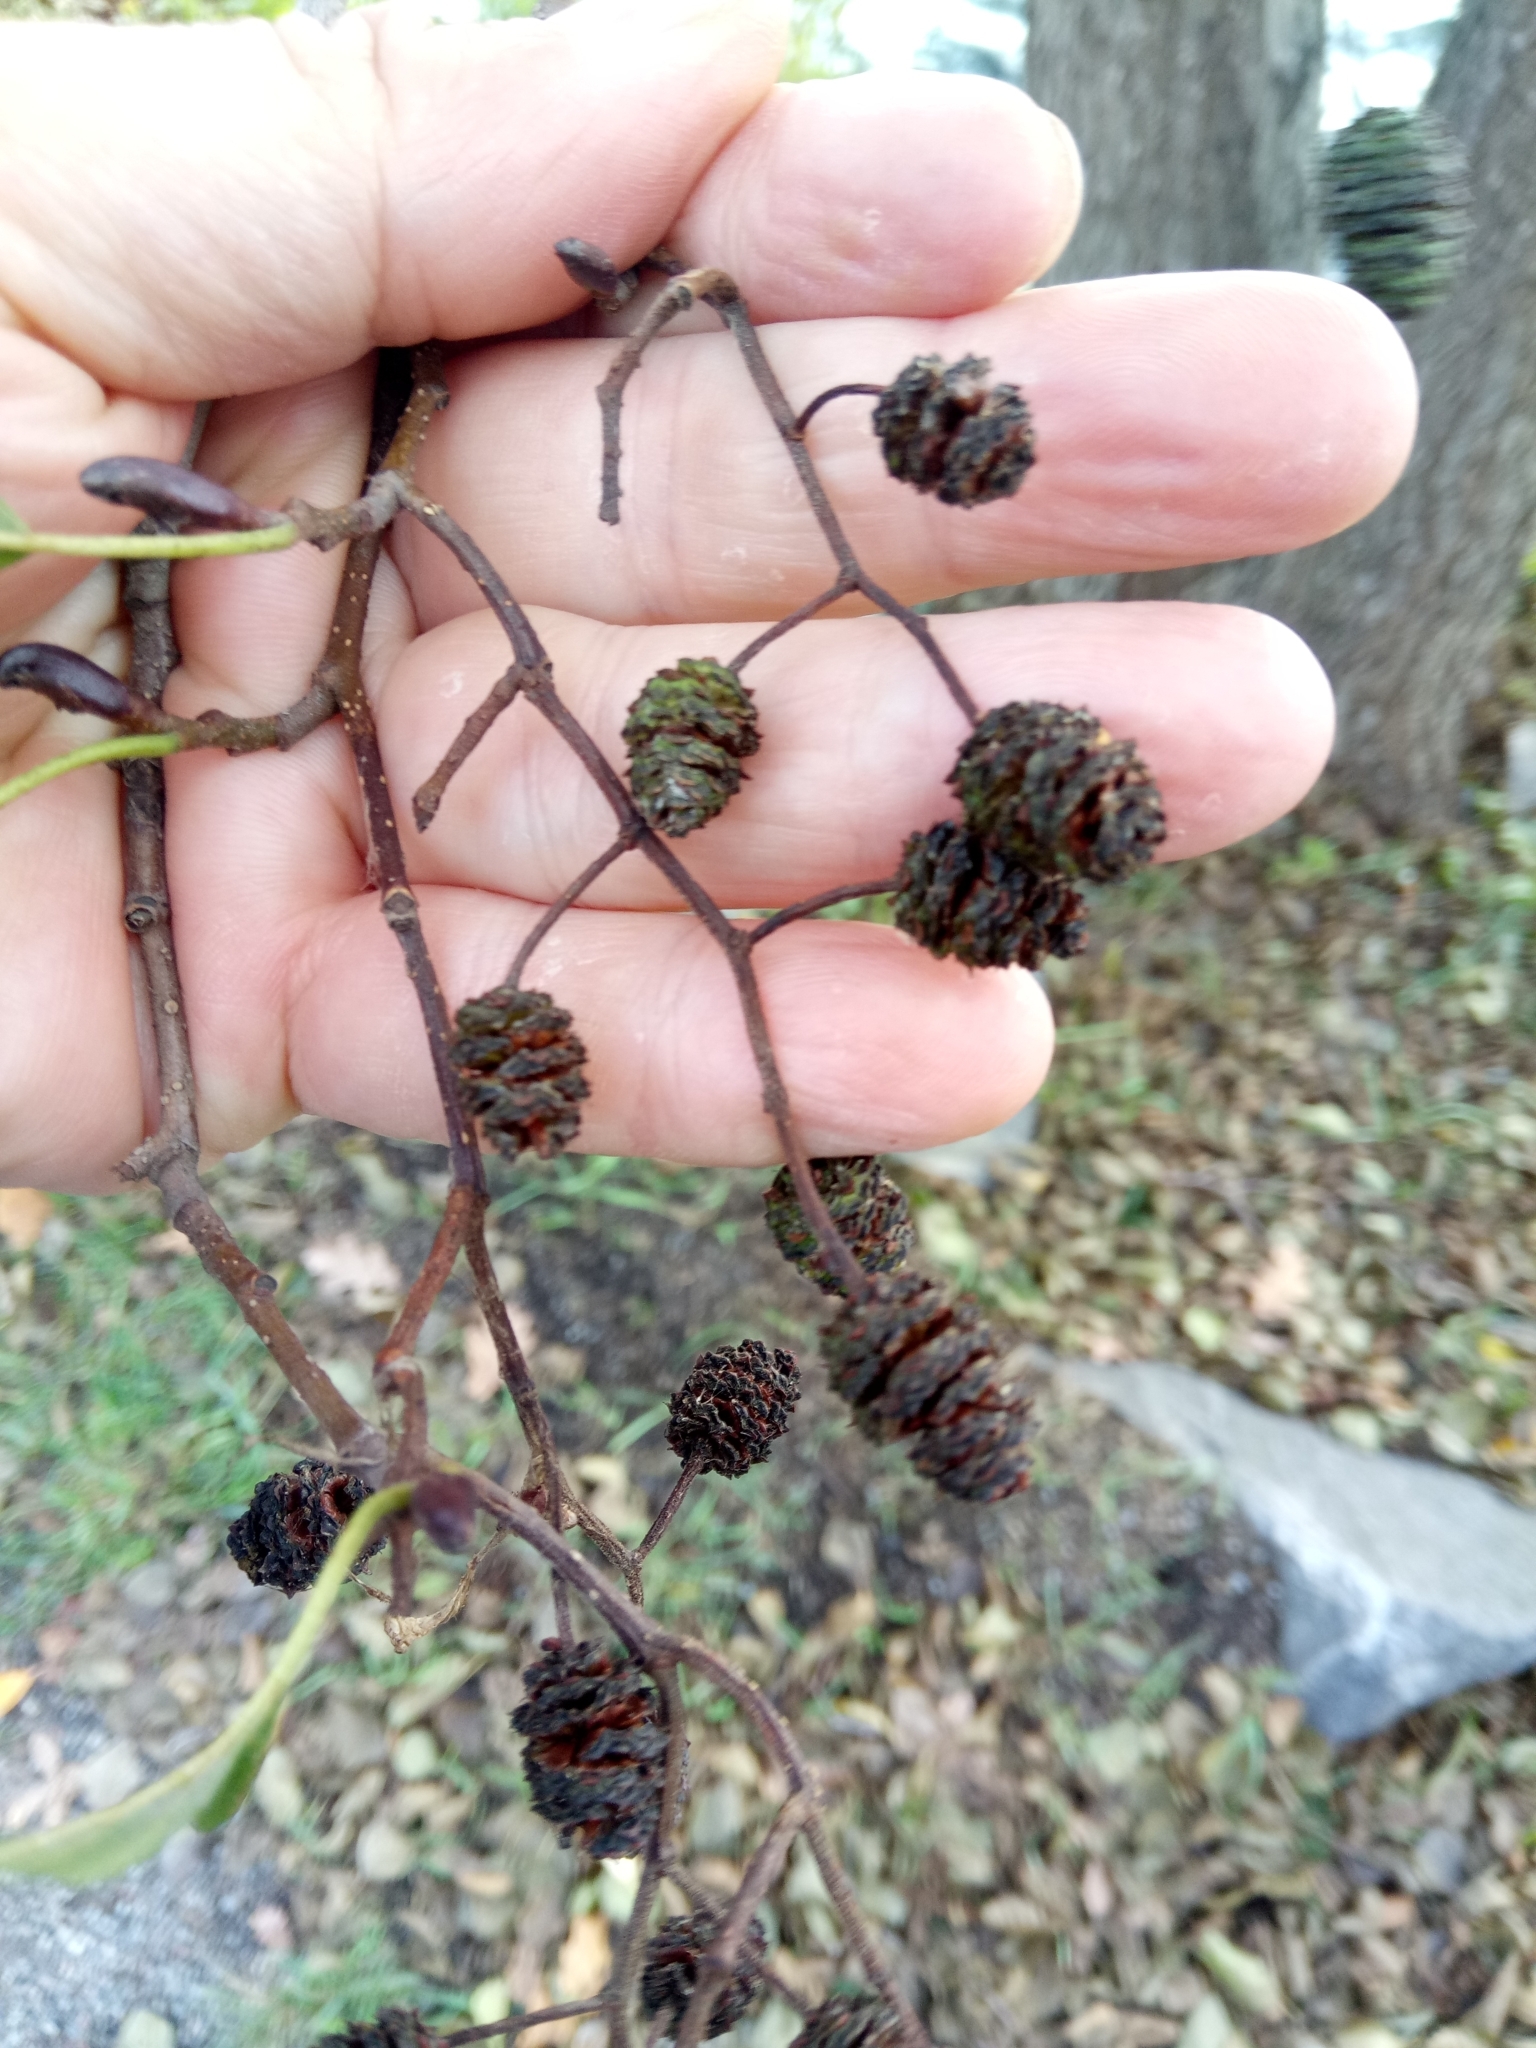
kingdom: Plantae
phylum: Tracheophyta
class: Magnoliopsida
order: Fagales
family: Betulaceae
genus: Alnus
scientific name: Alnus glutinosa
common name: Black alder
